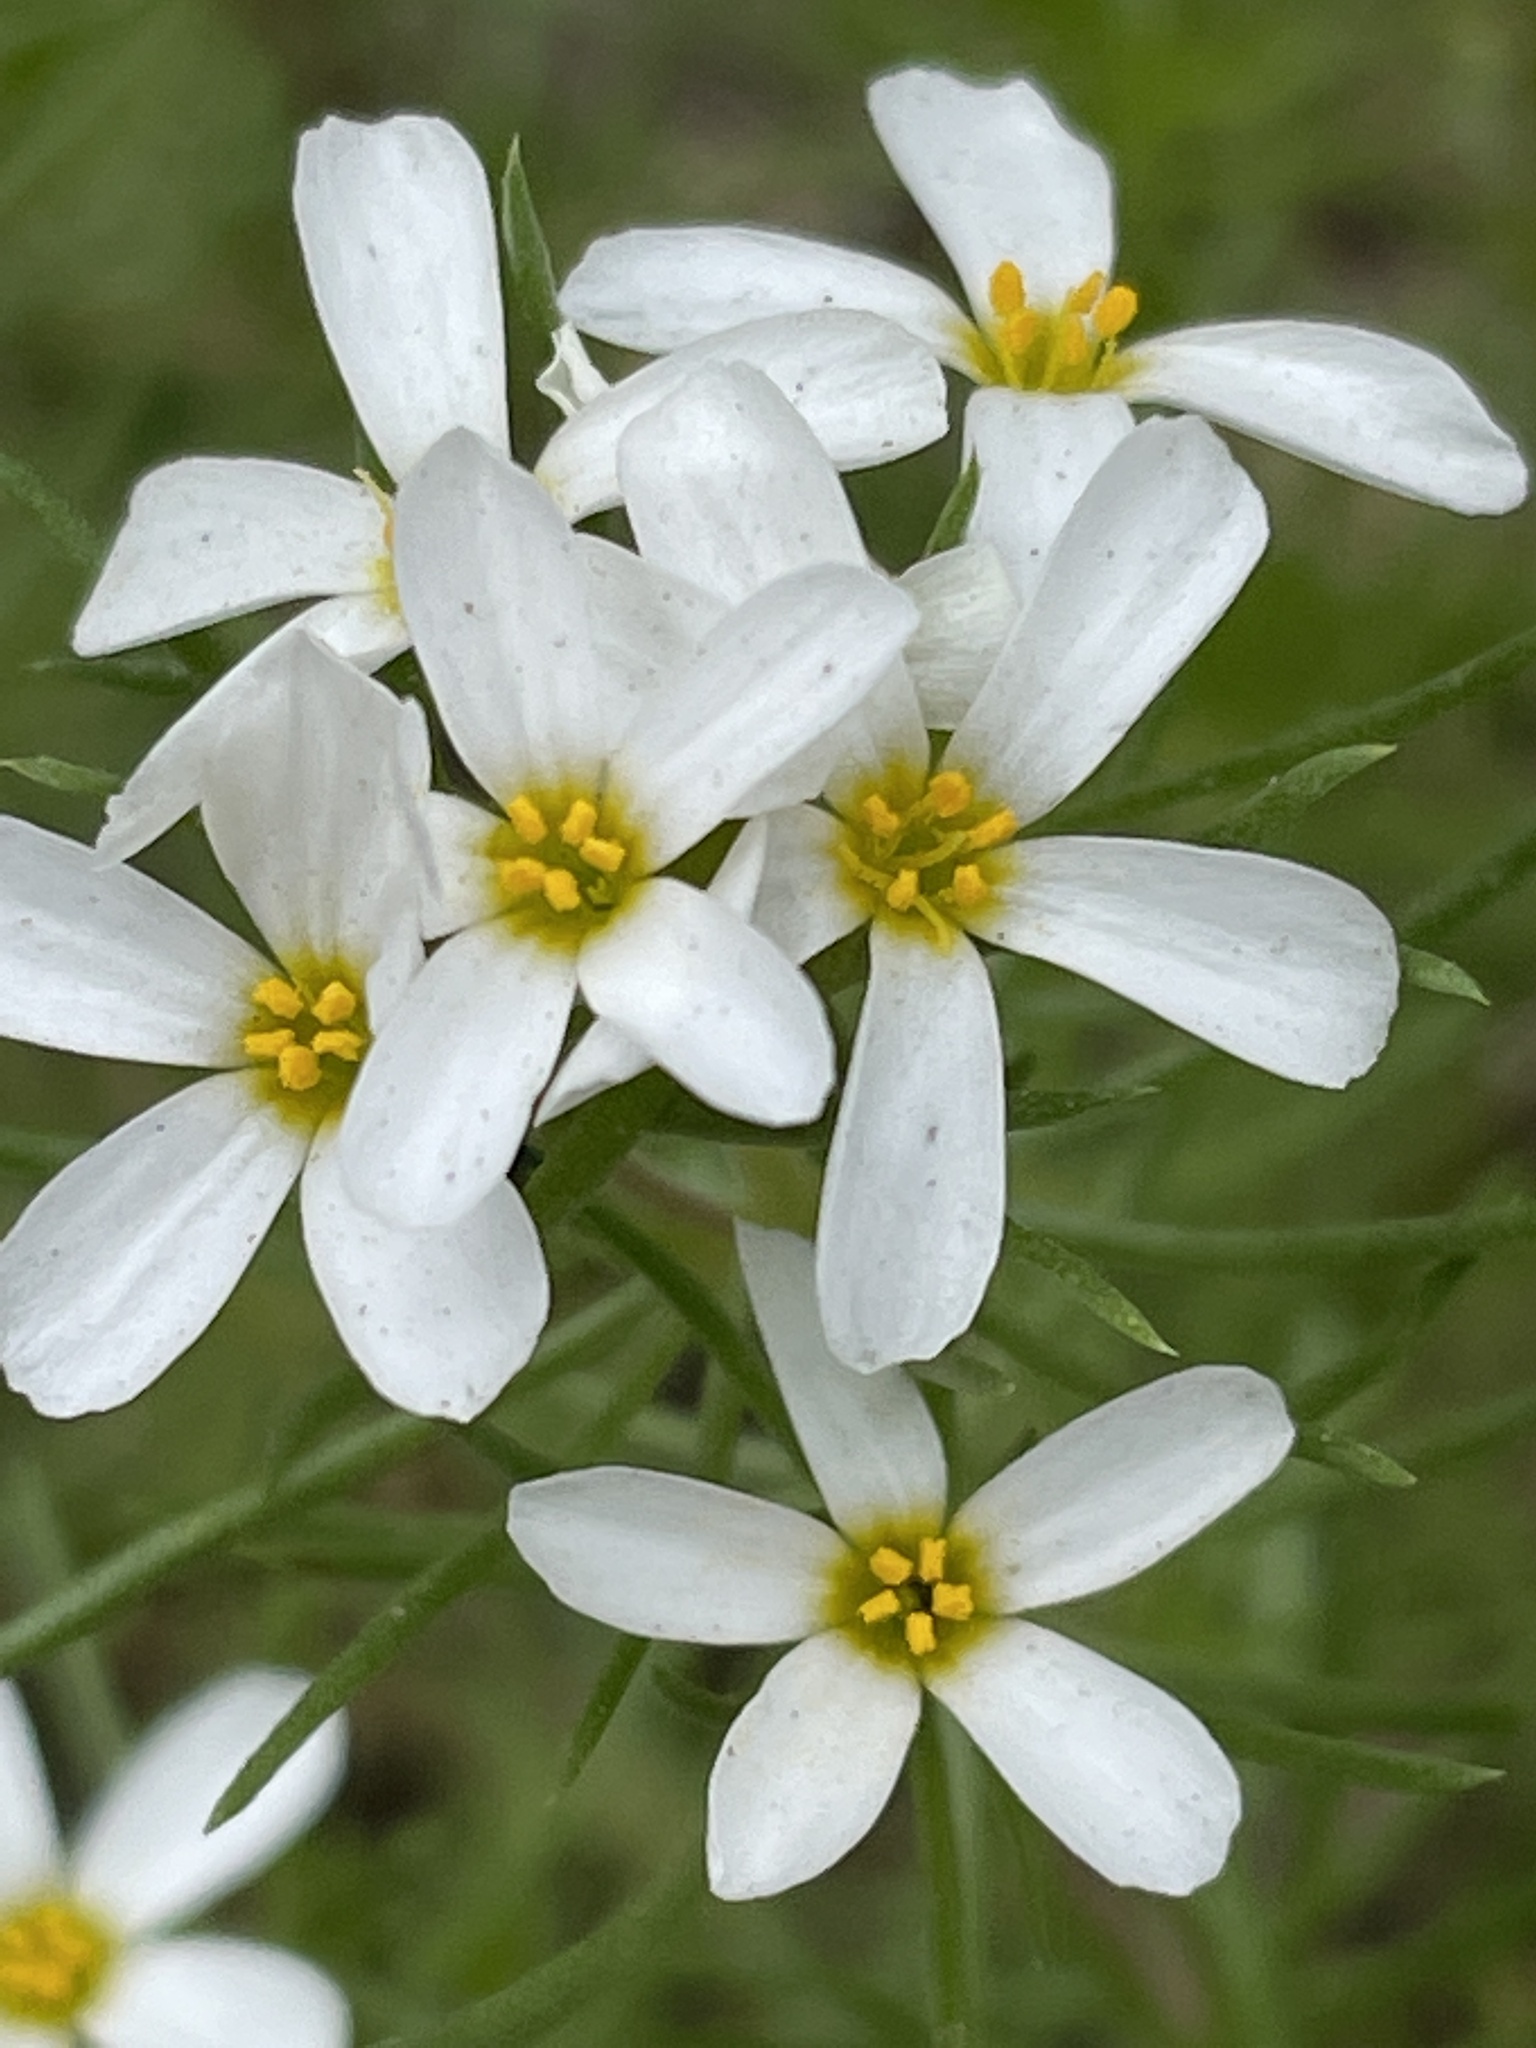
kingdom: Plantae
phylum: Tracheophyta
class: Magnoliopsida
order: Ericales
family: Polemoniaceae
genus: Leptosiphon
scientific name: Leptosiphon nuttallii
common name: Nuttall's linanthus
